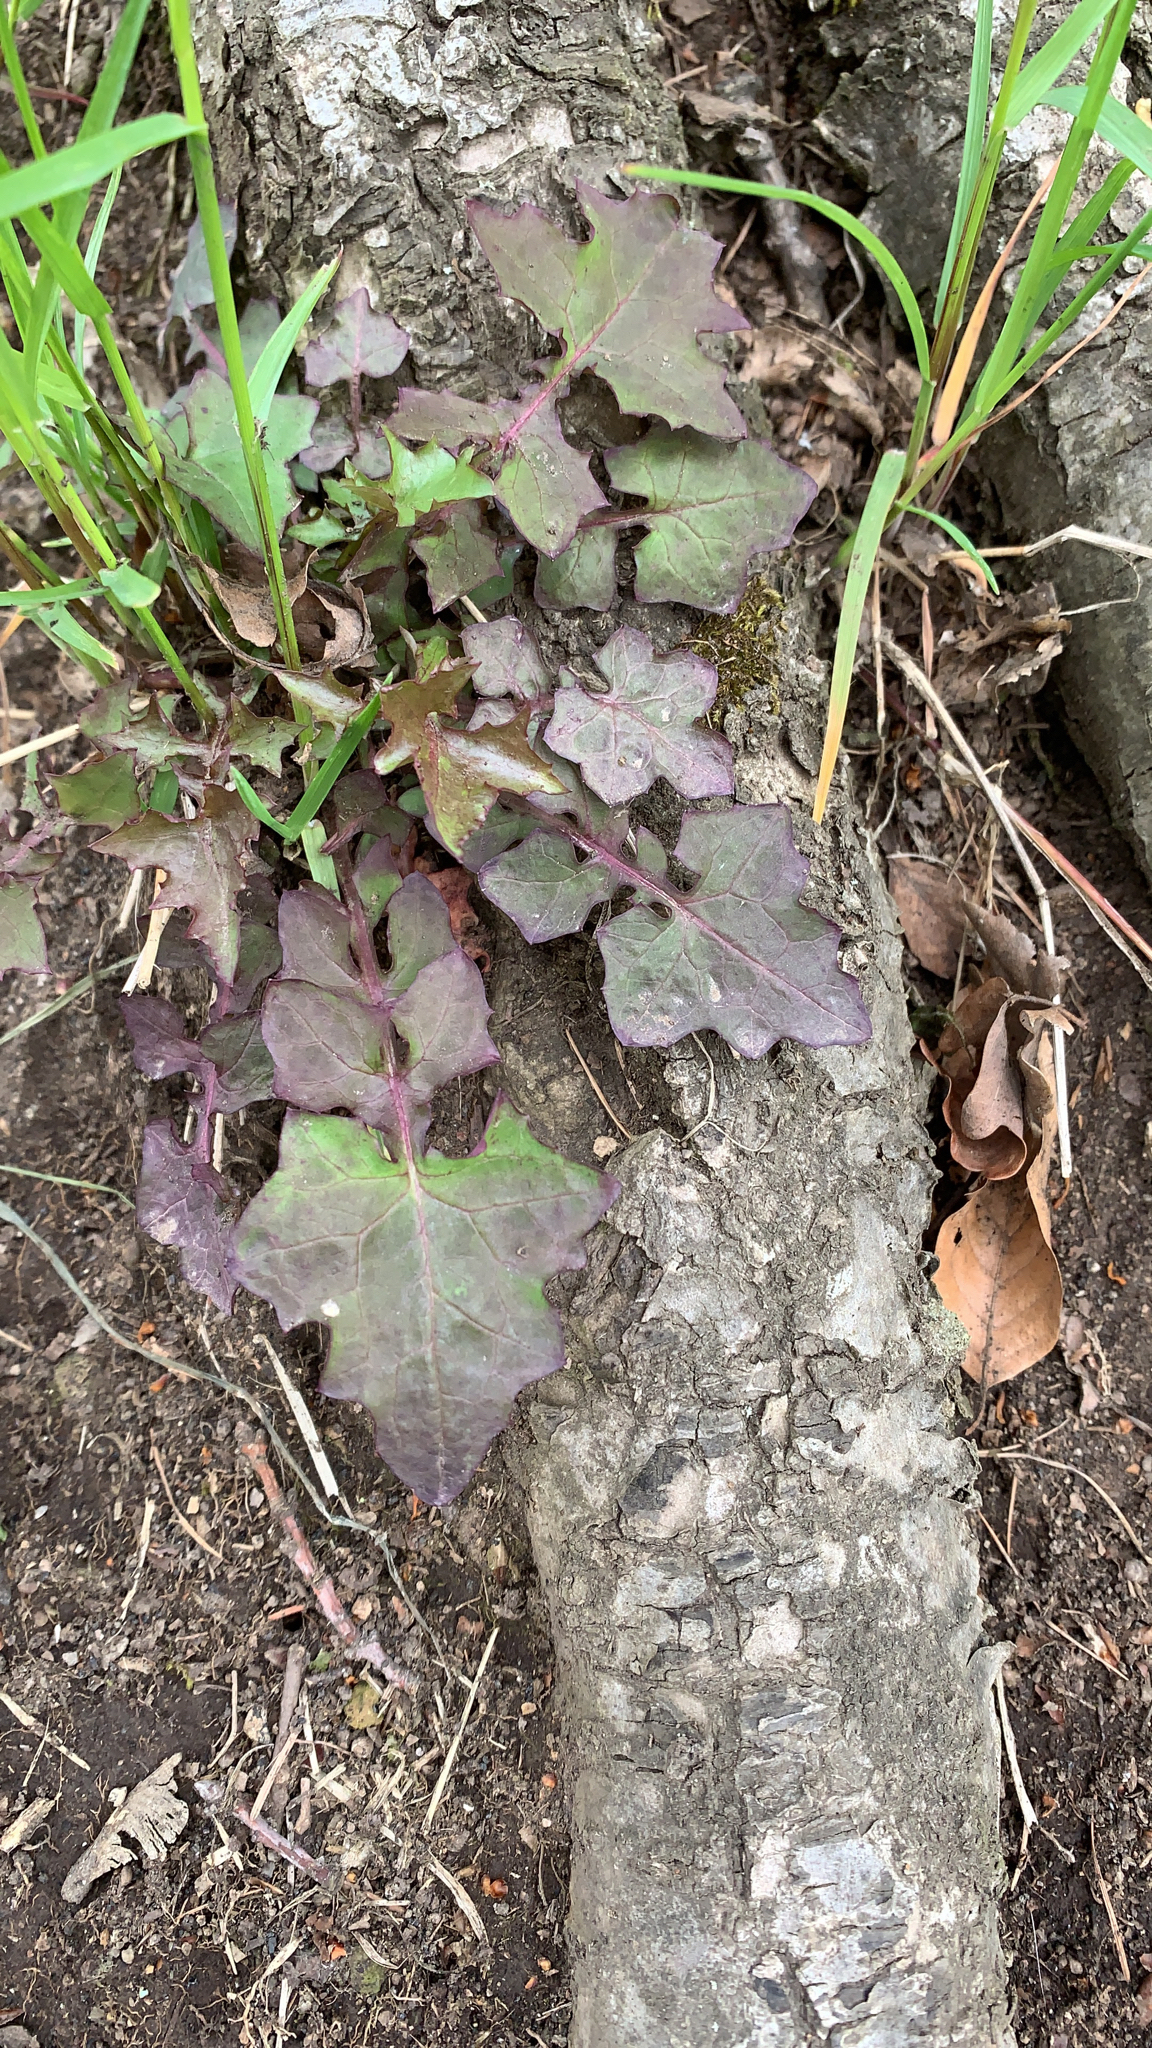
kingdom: Plantae
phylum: Tracheophyta
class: Magnoliopsida
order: Asterales
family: Asteraceae
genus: Mycelis
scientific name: Mycelis muralis
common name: Wall lettuce
